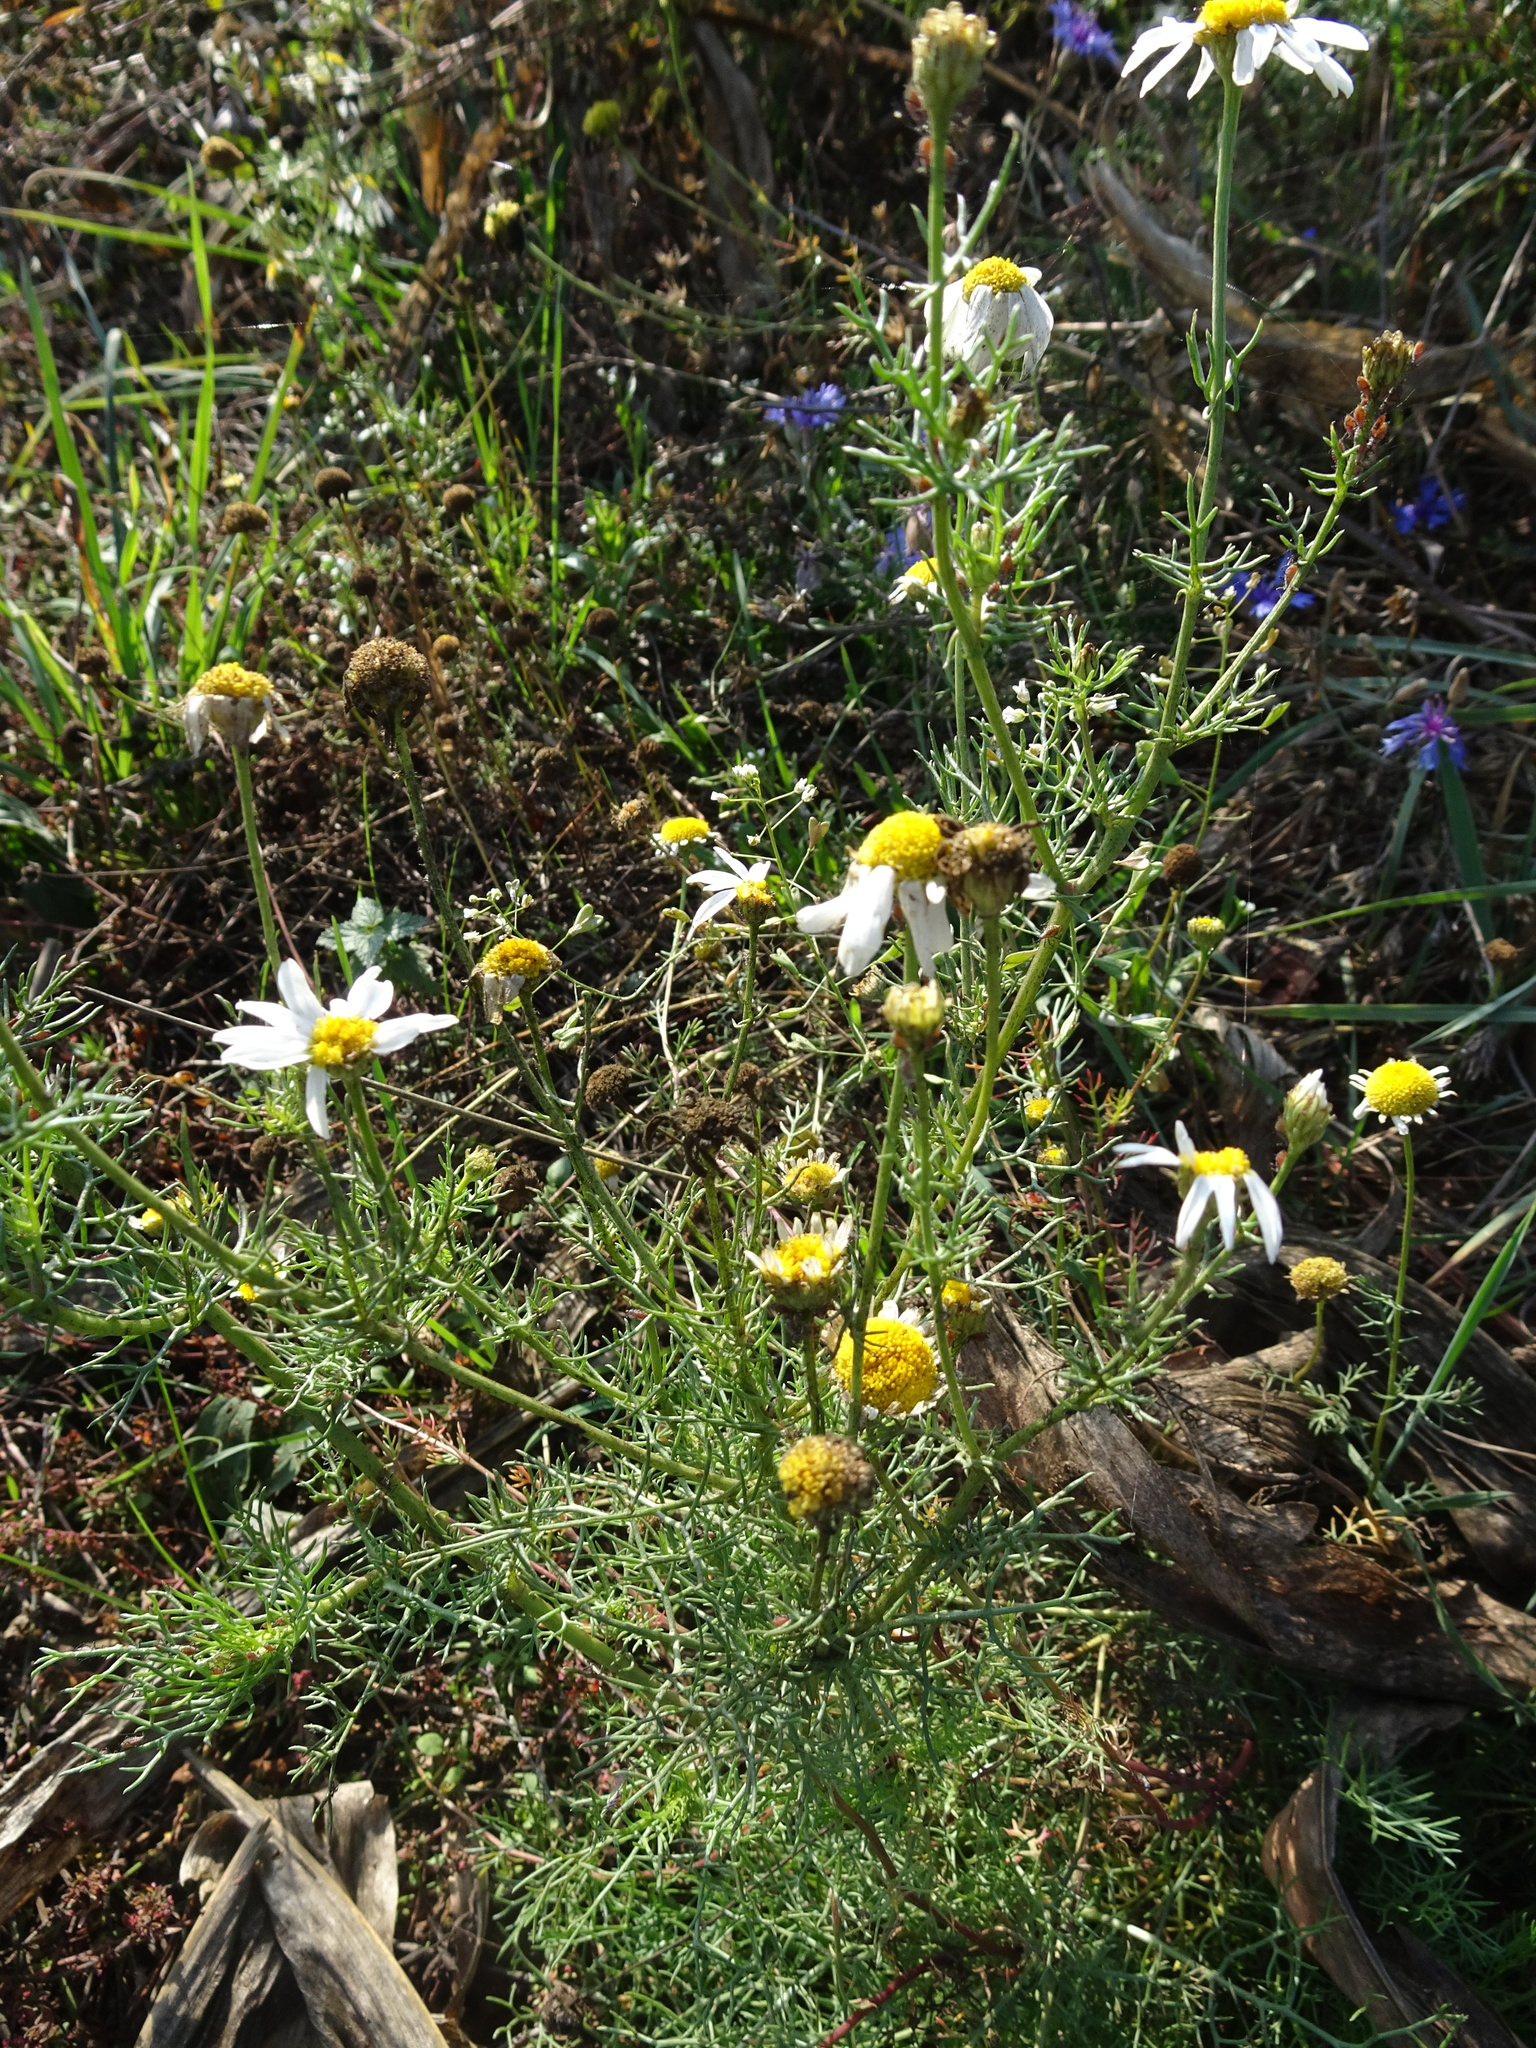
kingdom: Plantae
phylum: Tracheophyta
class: Magnoliopsida
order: Asterales
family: Asteraceae
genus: Tripleurospermum
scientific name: Tripleurospermum inodorum
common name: Scentless mayweed
